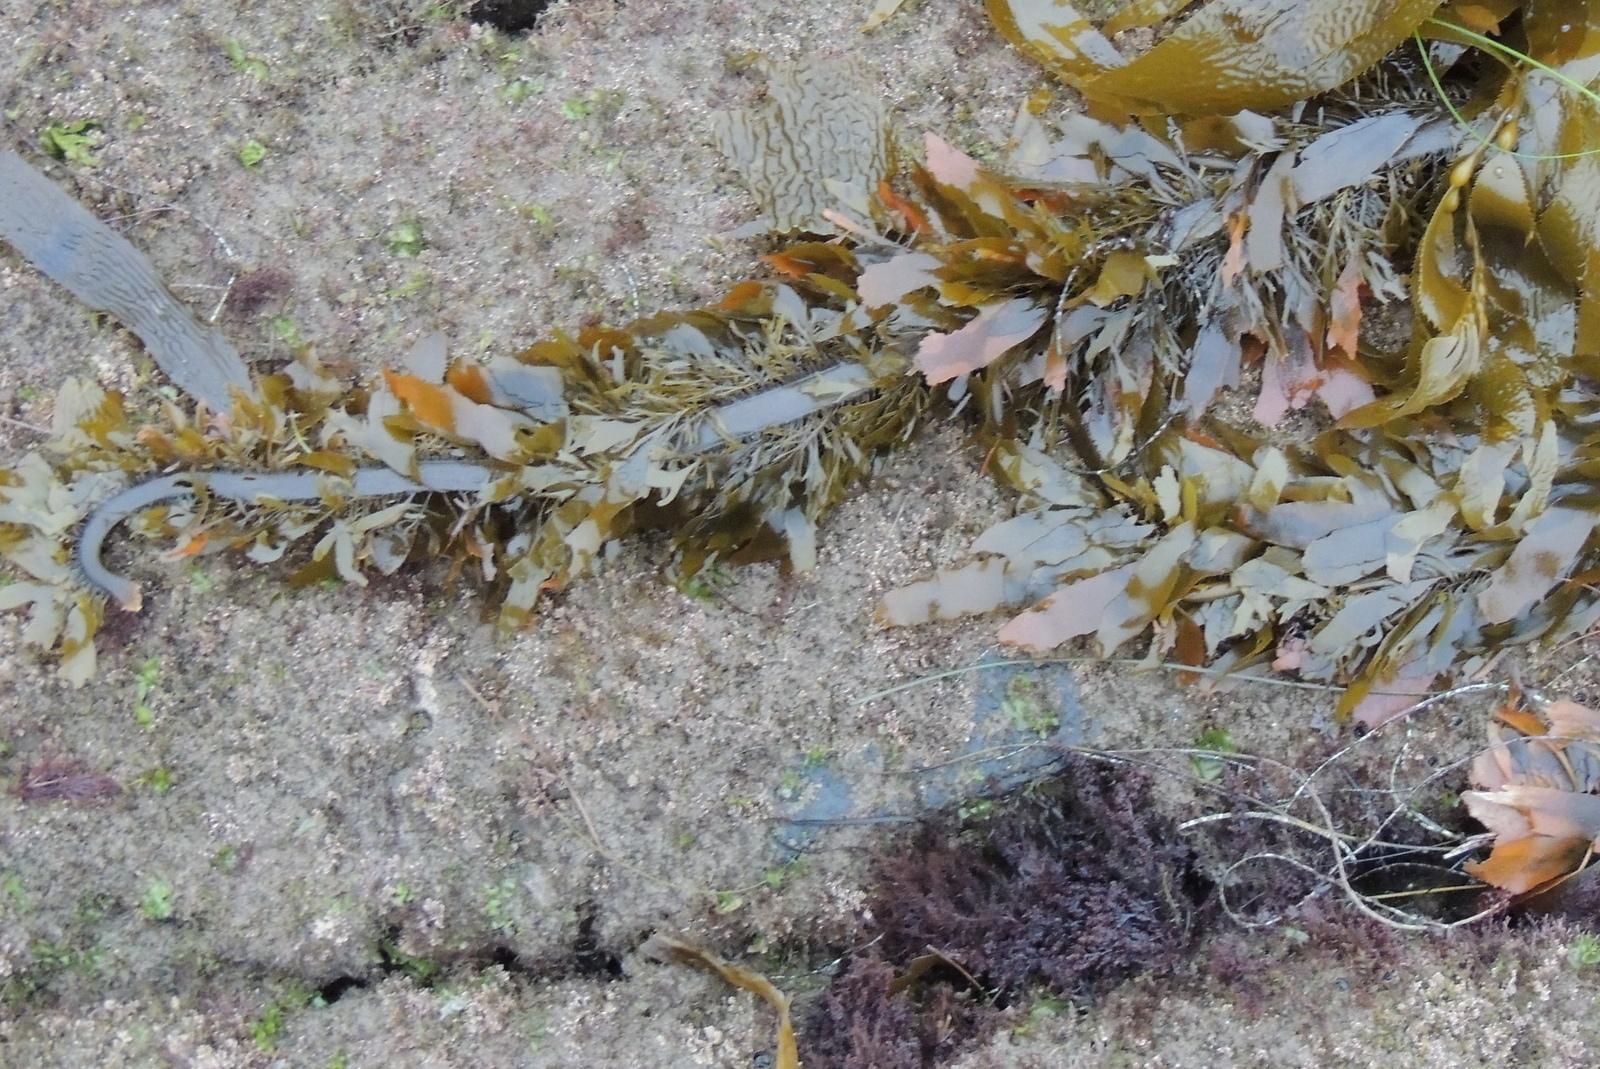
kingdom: Chromista
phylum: Ochrophyta
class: Phaeophyceae
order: Laminariales
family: Lessoniaceae
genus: Egregia
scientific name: Egregia menziesii
